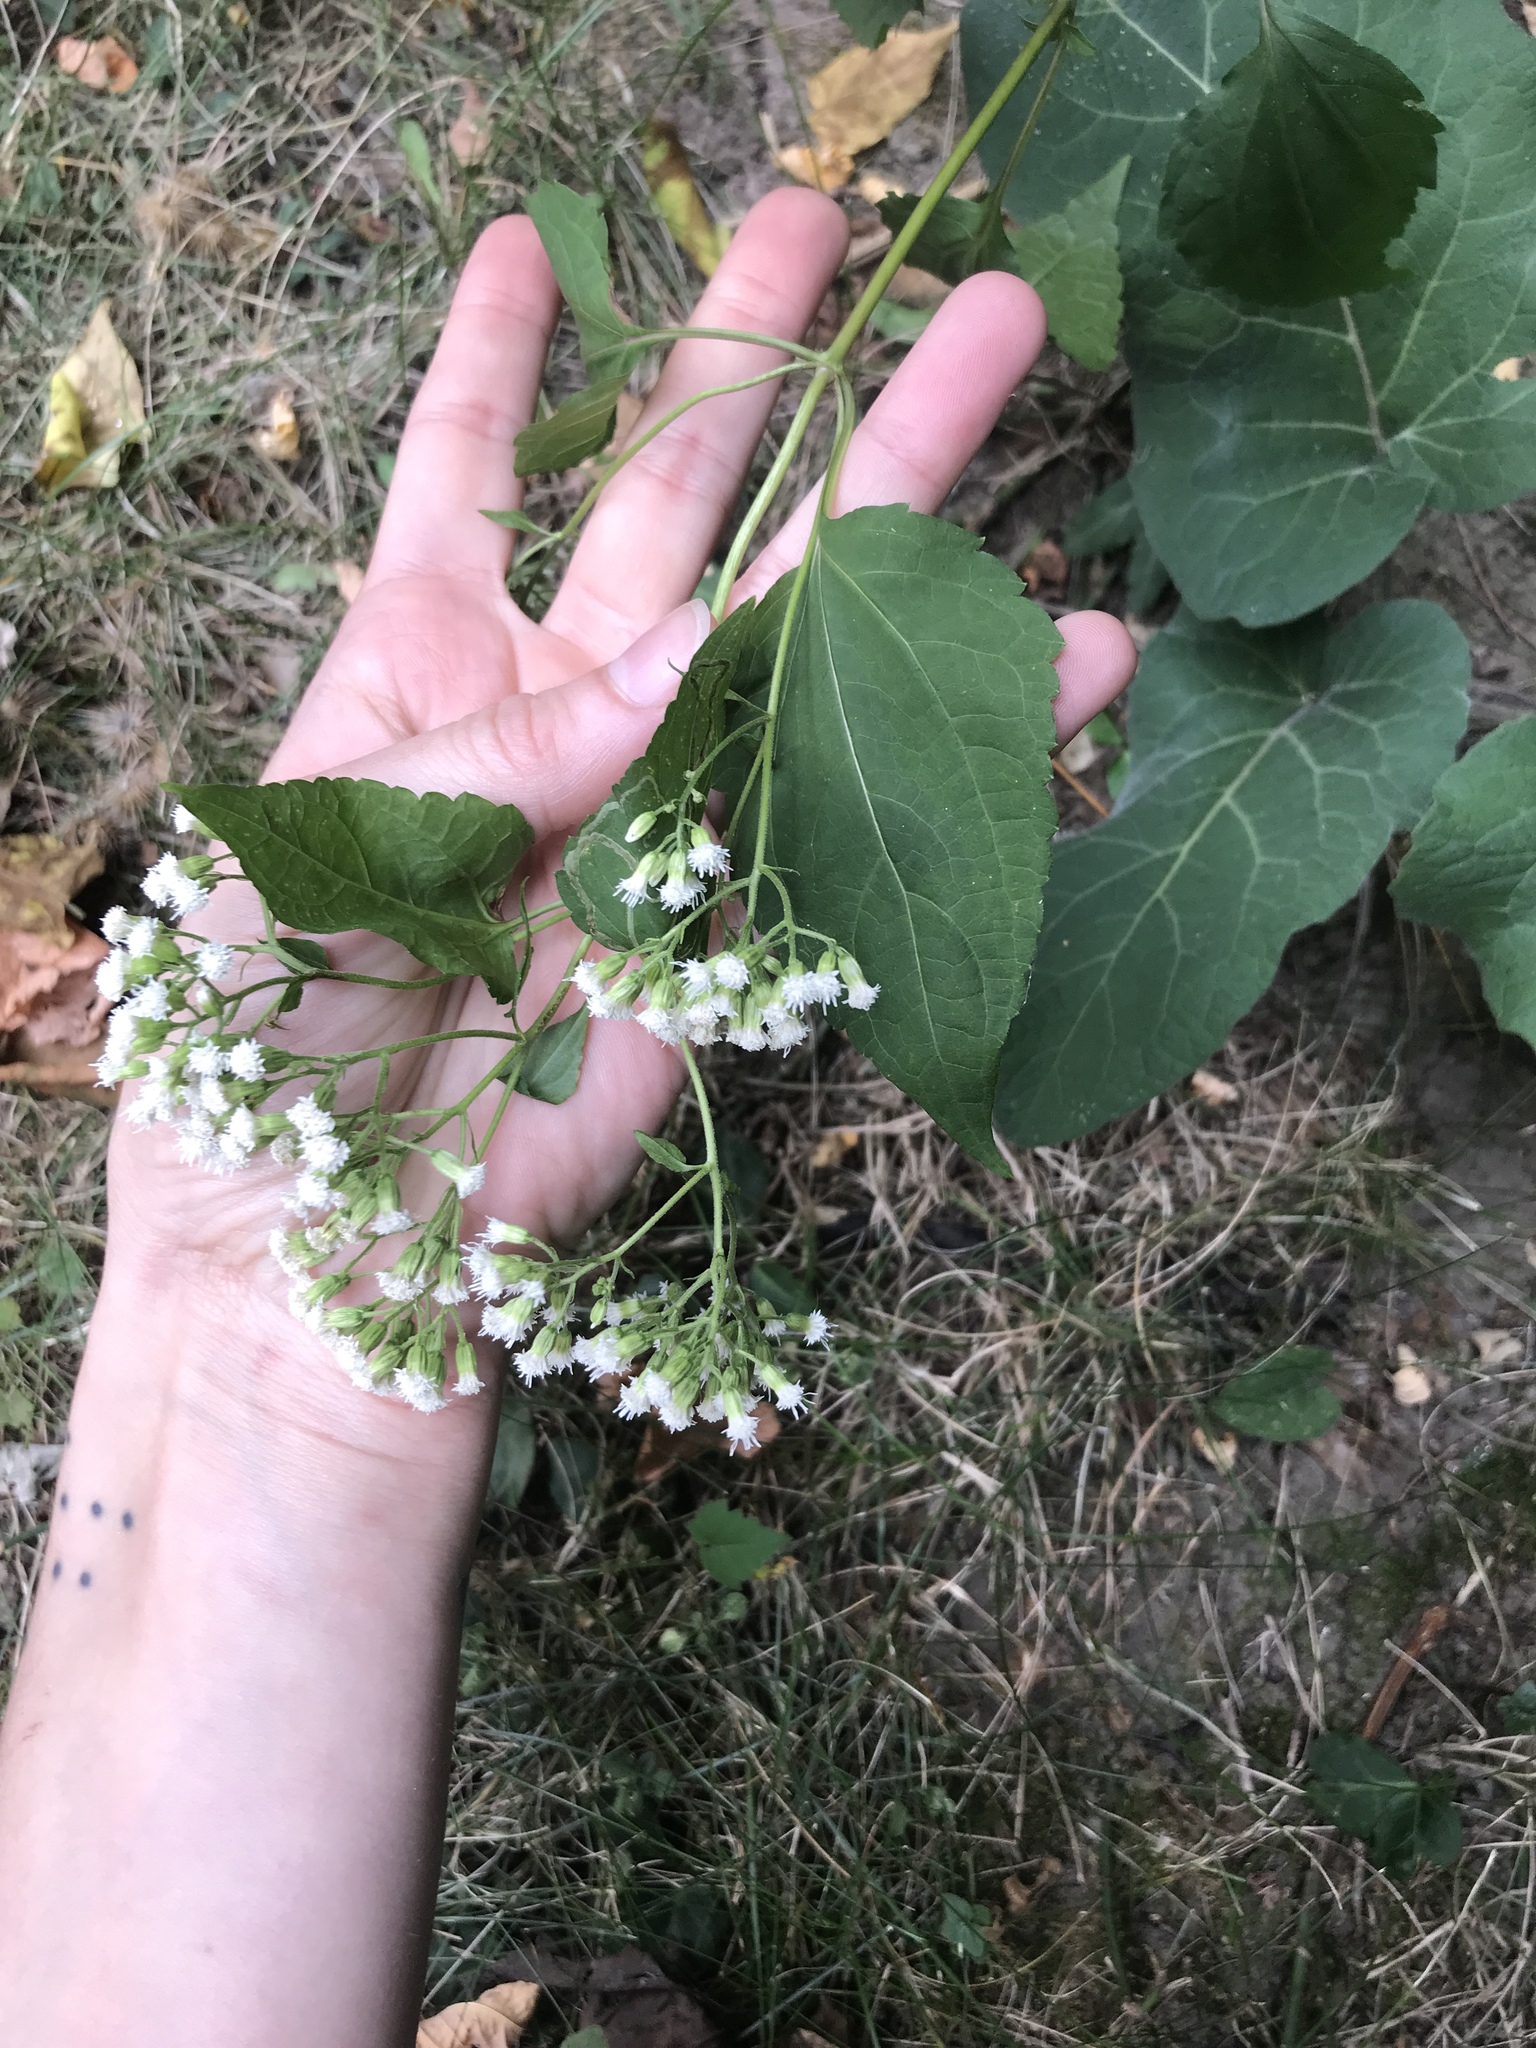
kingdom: Plantae
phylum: Tracheophyta
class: Magnoliopsida
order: Asterales
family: Asteraceae
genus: Ageratina
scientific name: Ageratina altissima
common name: White snakeroot
